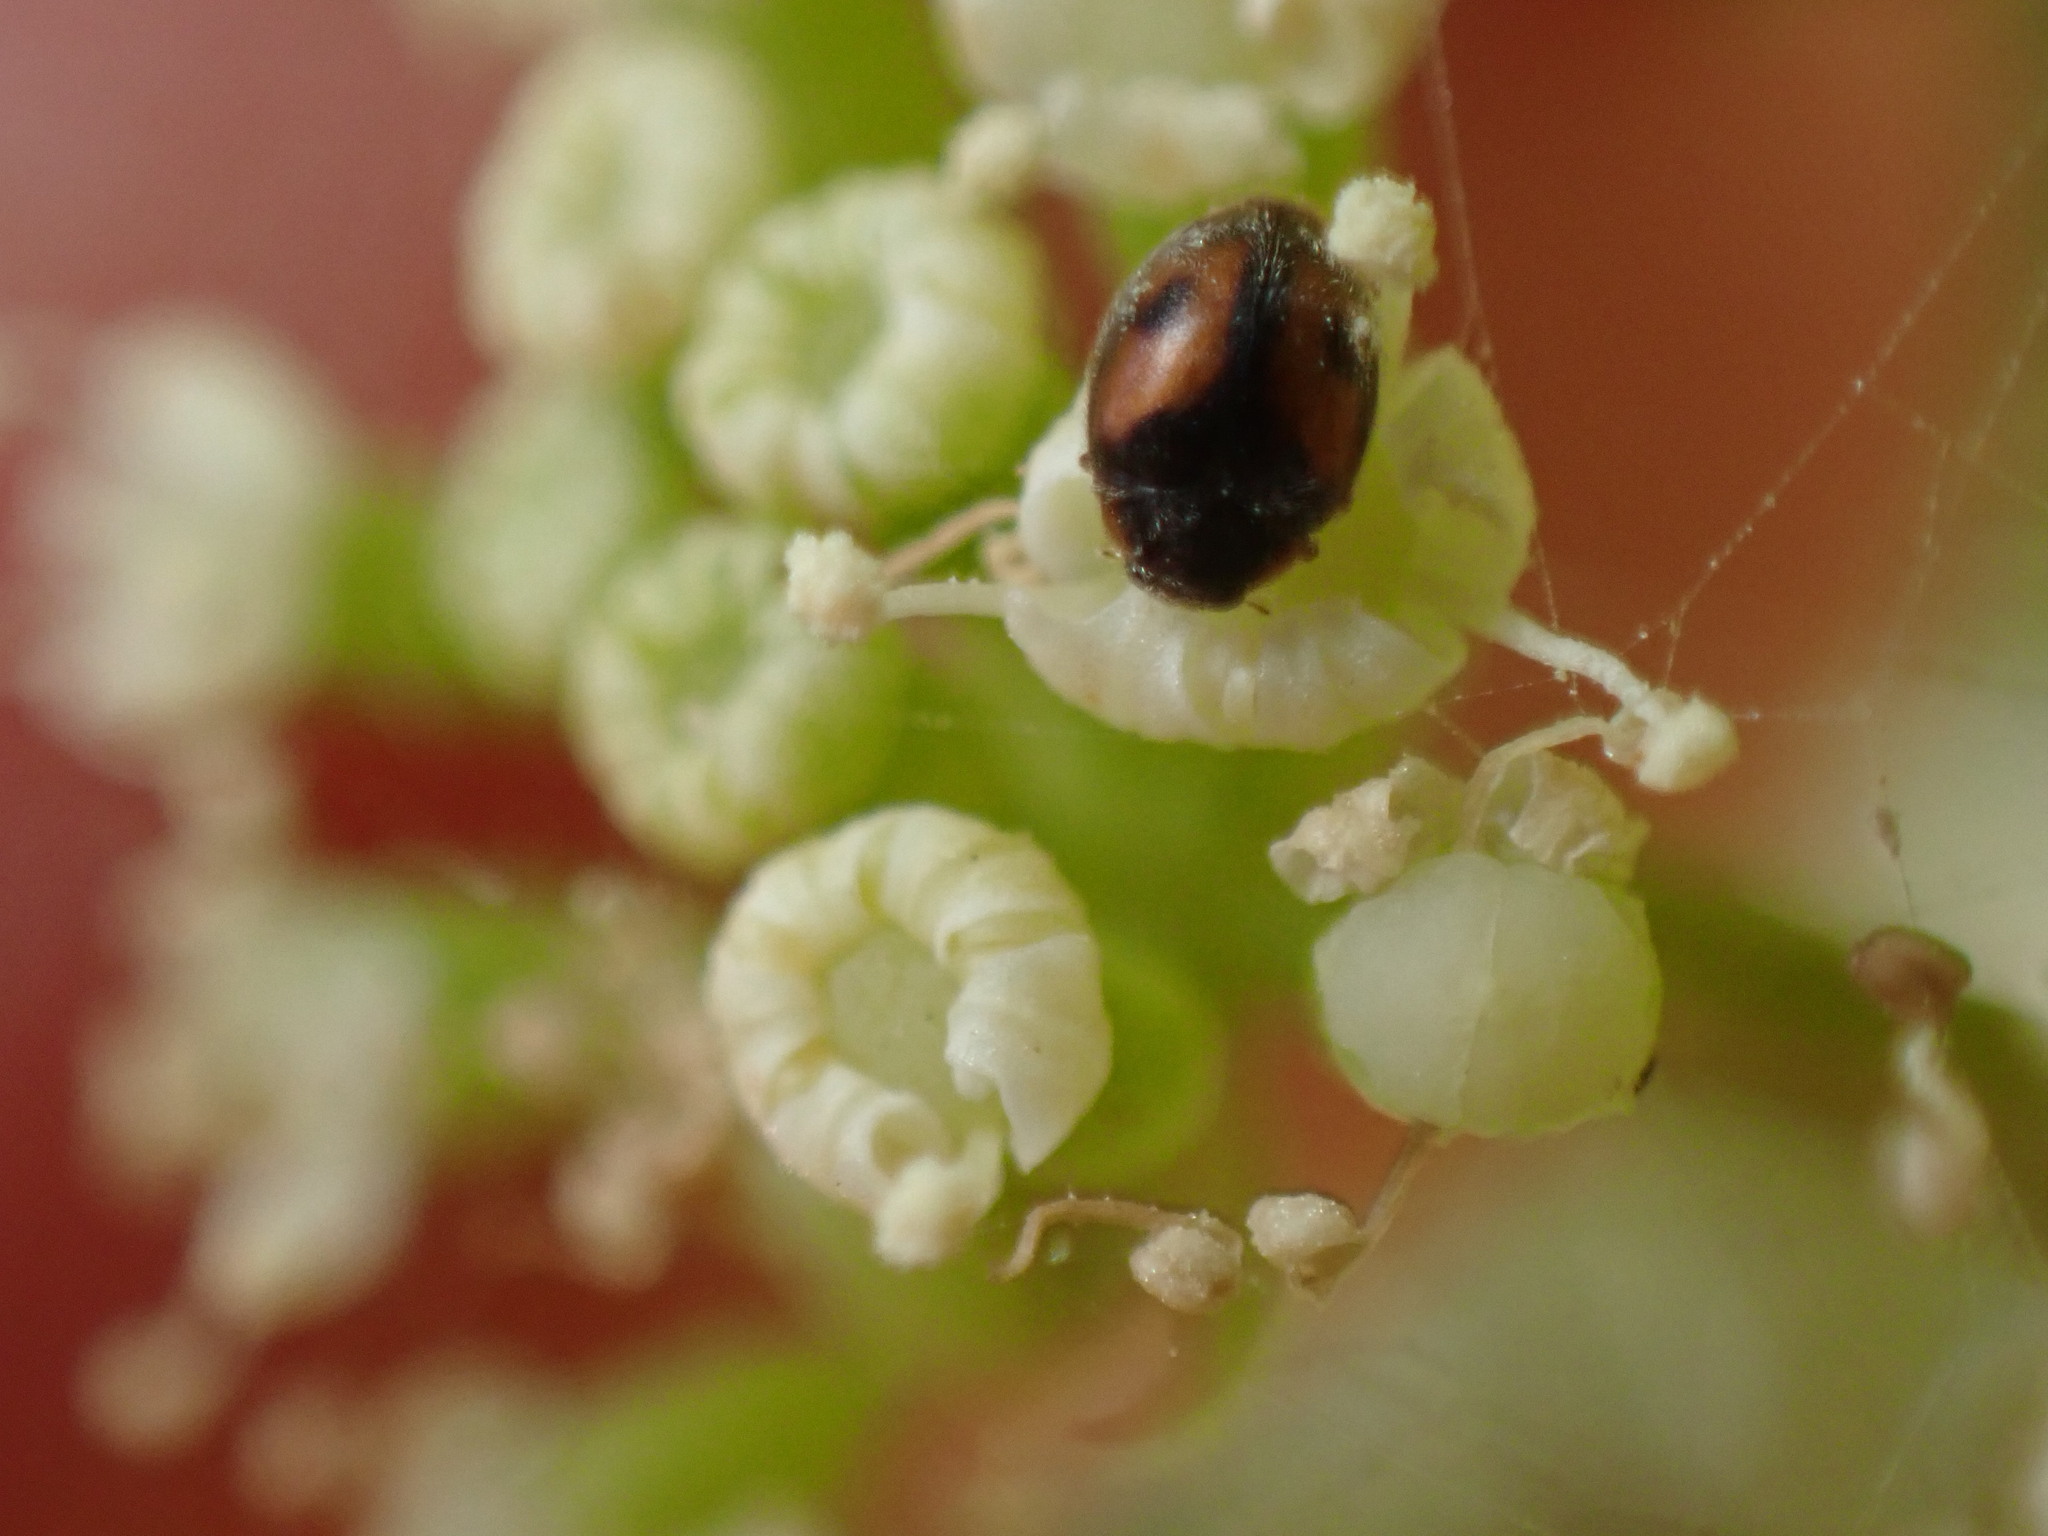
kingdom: Animalia
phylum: Arthropoda
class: Insecta
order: Coleoptera
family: Coccinellidae
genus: Scymnus
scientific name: Scymnus canariensis
